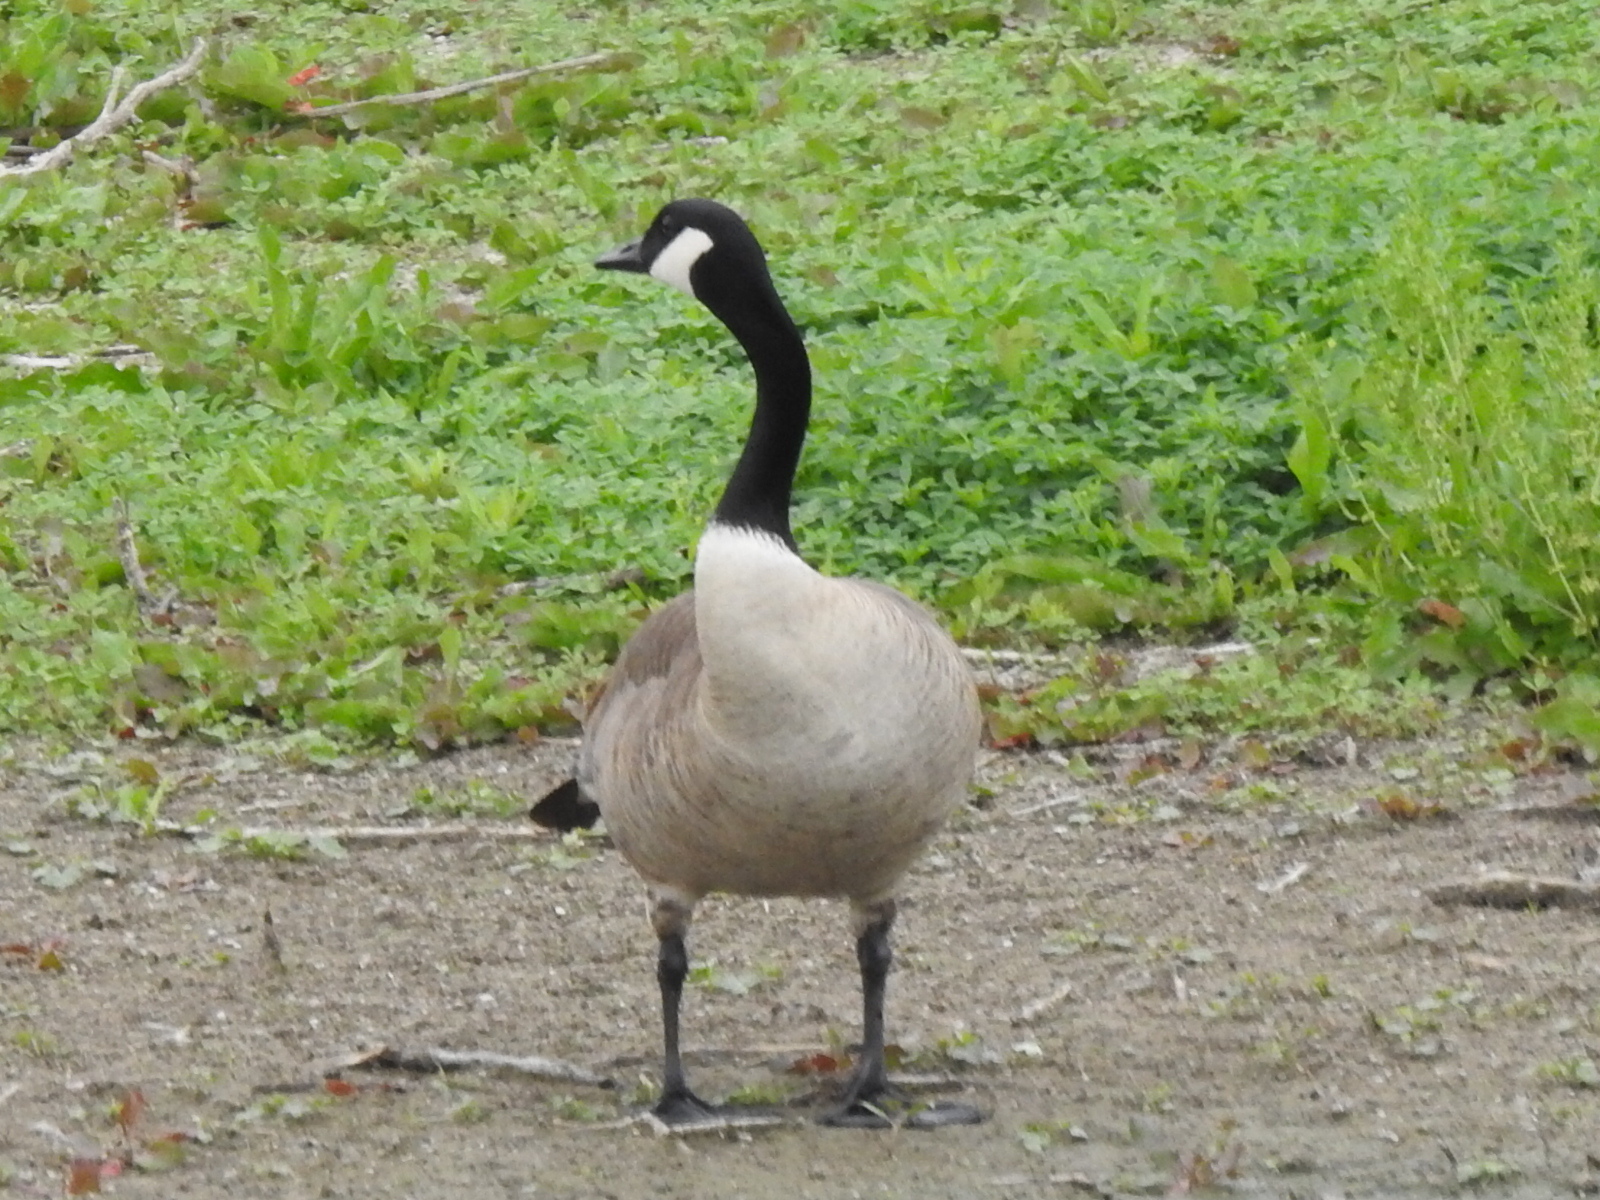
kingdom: Animalia
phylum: Chordata
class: Aves
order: Anseriformes
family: Anatidae
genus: Branta
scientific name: Branta canadensis
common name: Canada goose
